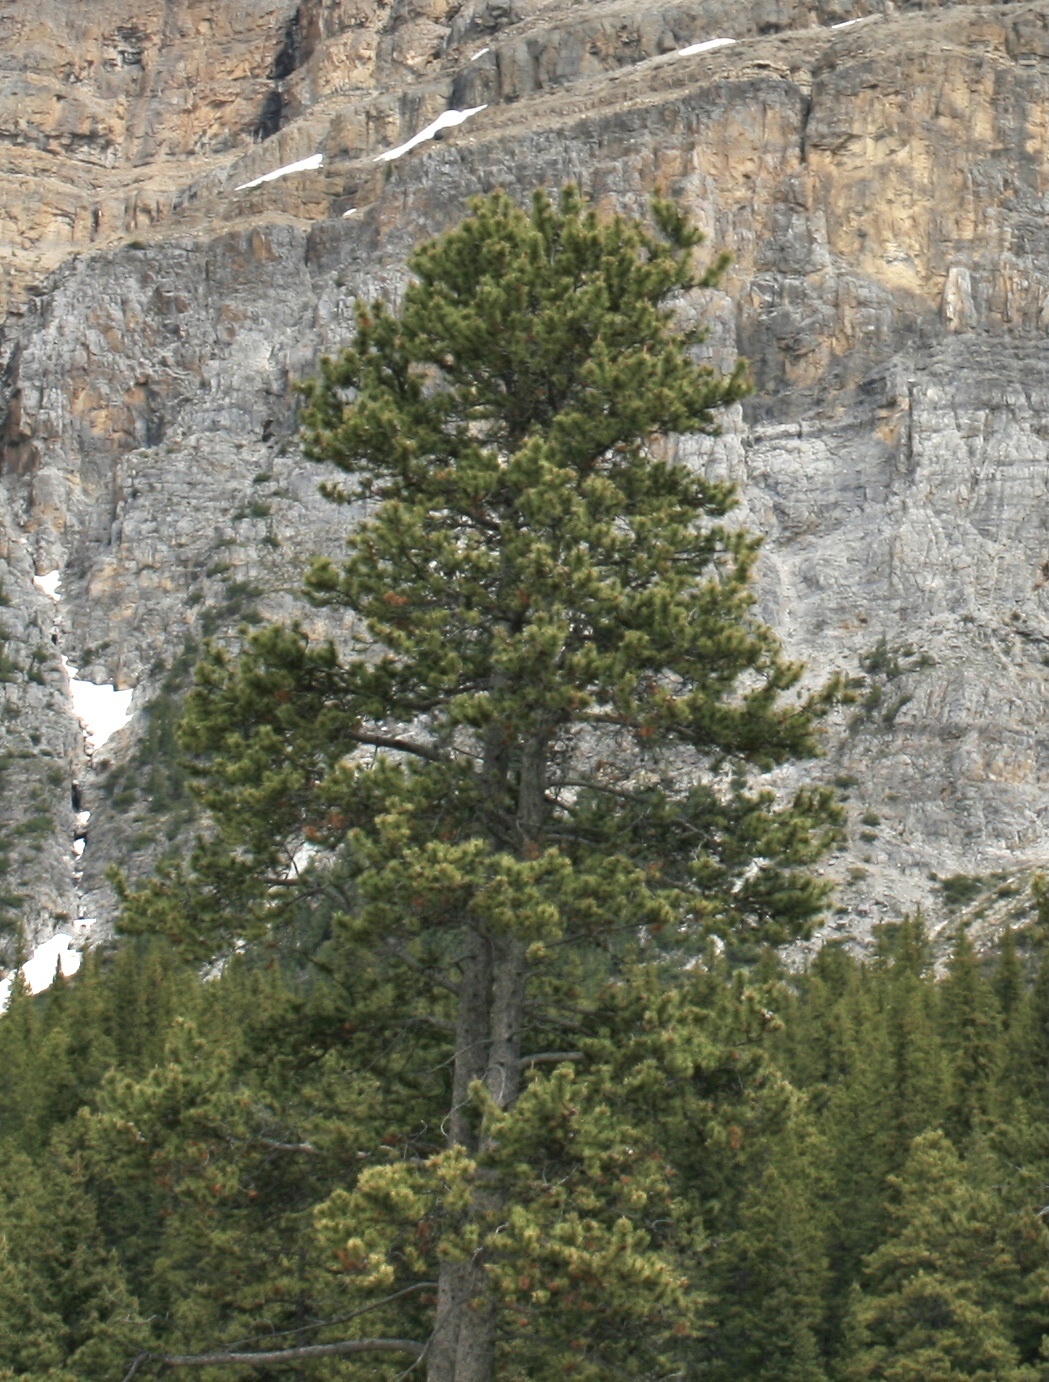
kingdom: Plantae
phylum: Tracheophyta
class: Pinopsida
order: Pinales
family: Pinaceae
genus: Pinus
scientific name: Pinus contorta
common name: Lodgepole pine
